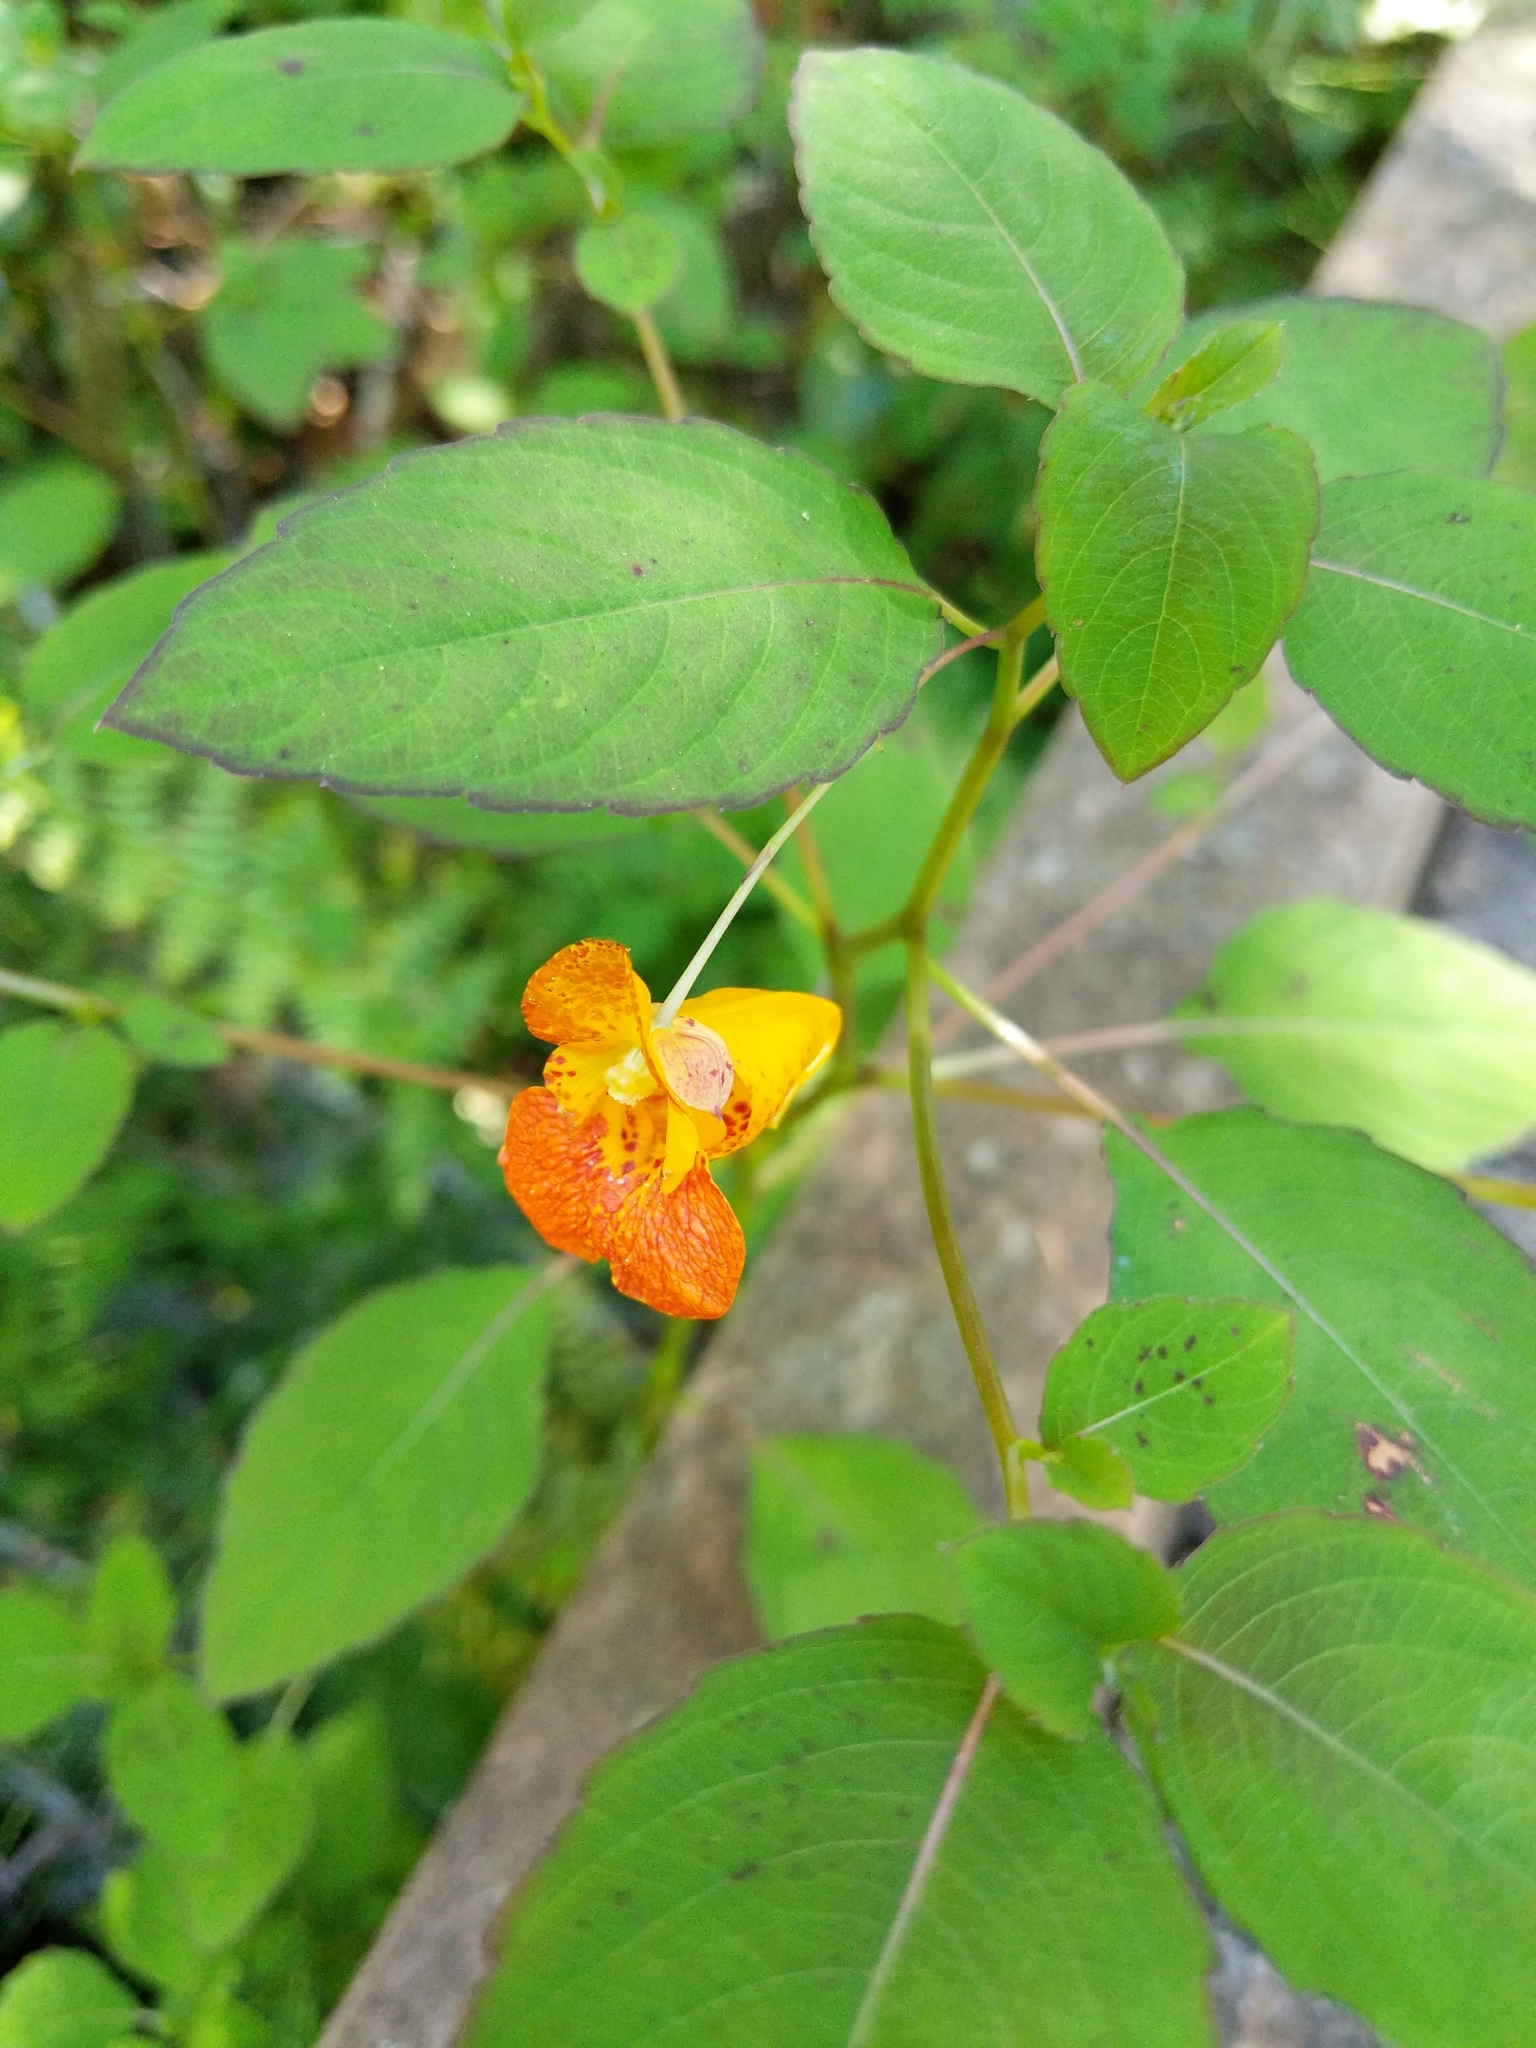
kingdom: Plantae
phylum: Tracheophyta
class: Magnoliopsida
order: Ericales
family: Balsaminaceae
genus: Impatiens
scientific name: Impatiens capensis
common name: Orange balsam
